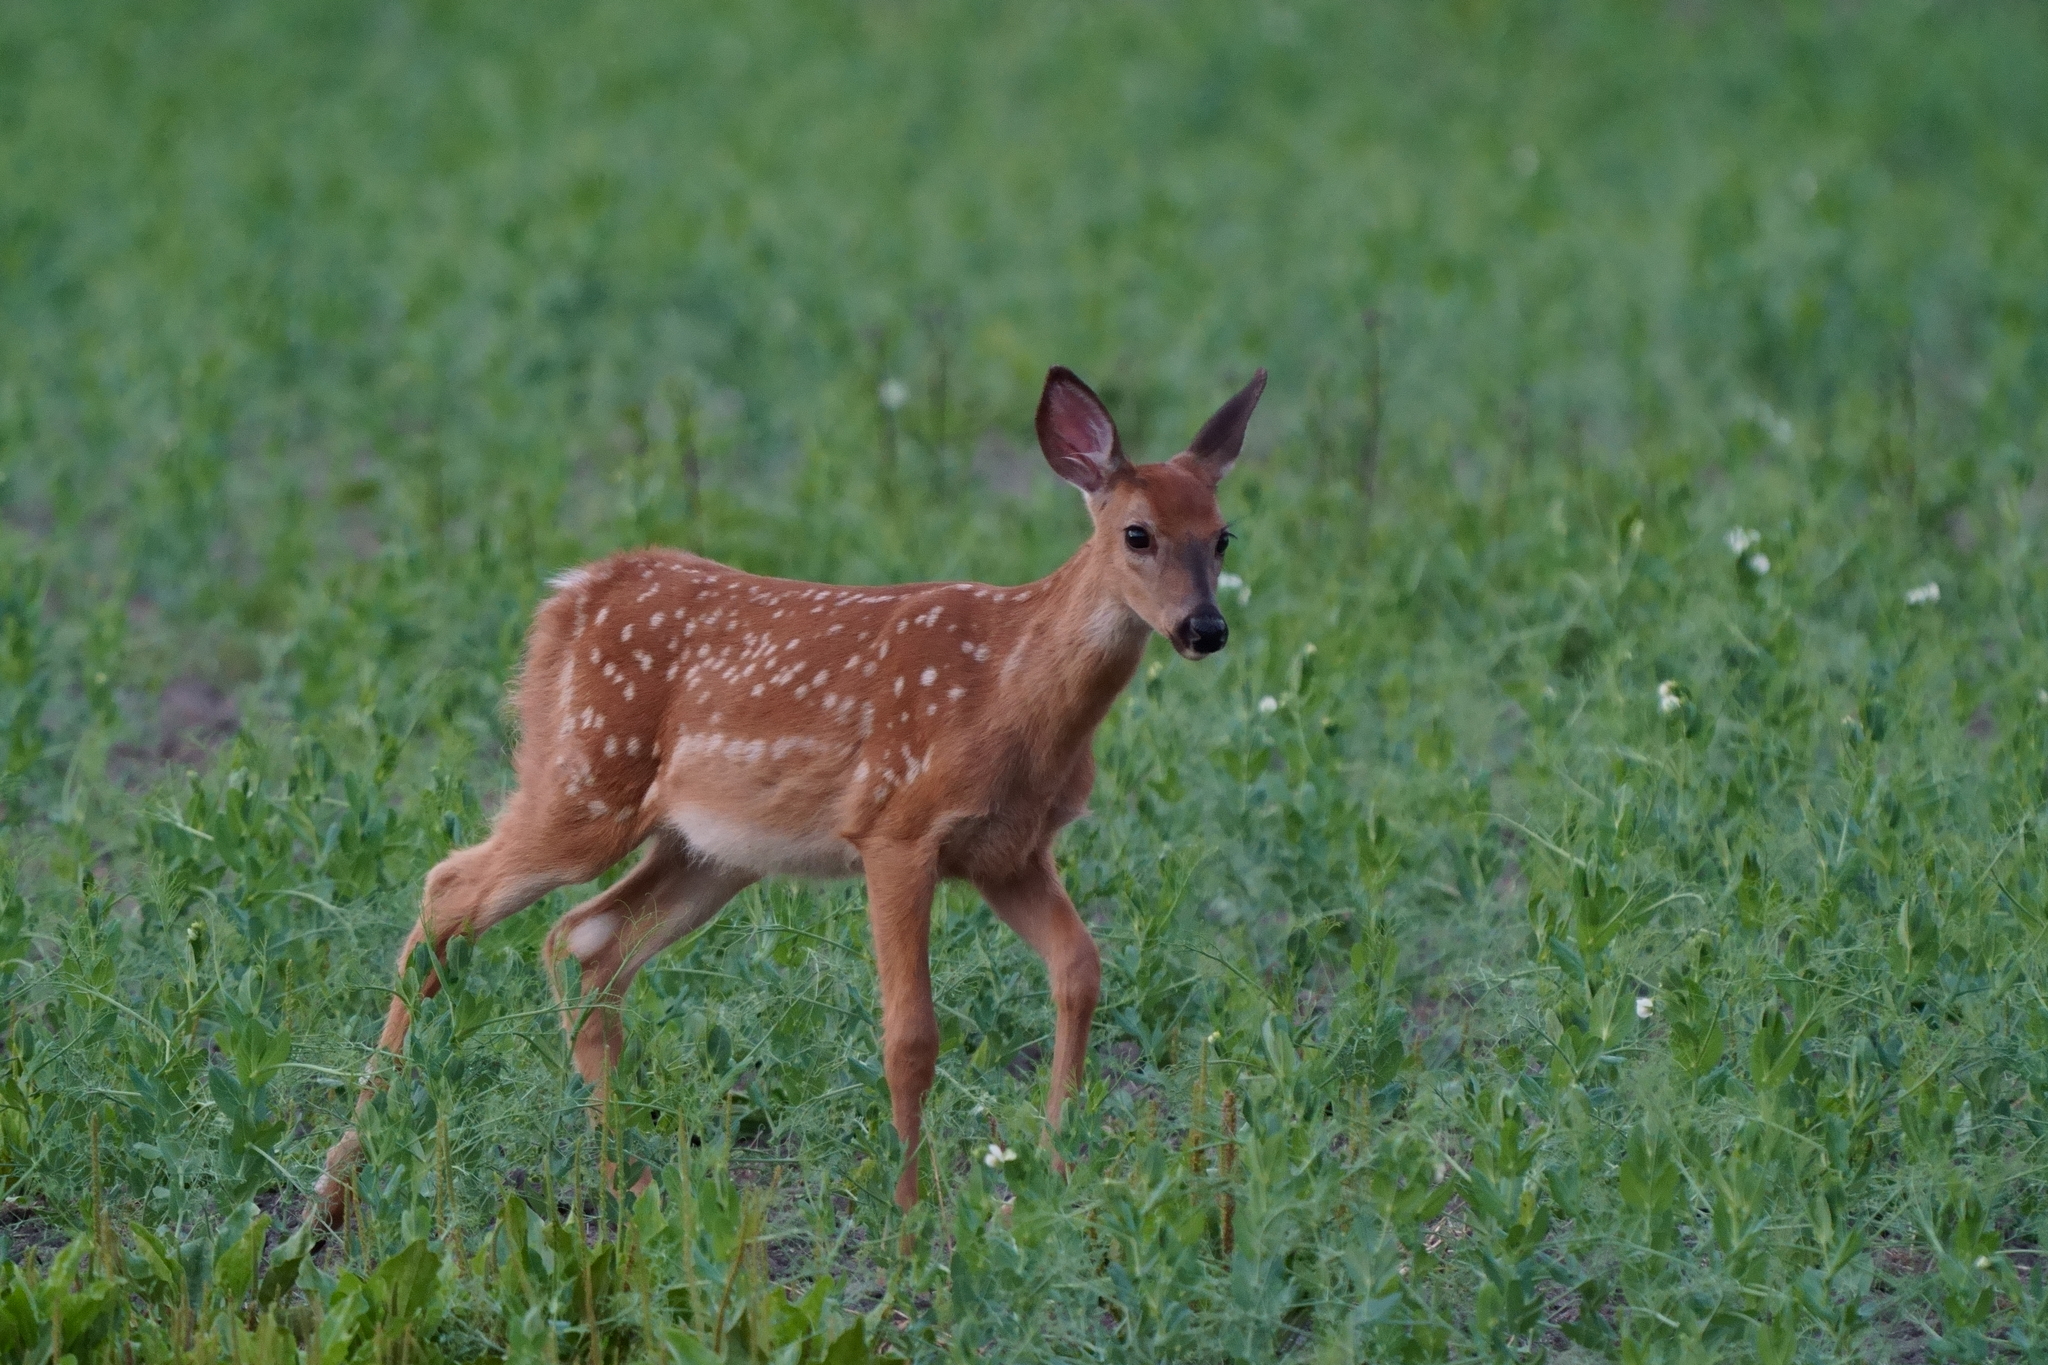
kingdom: Animalia
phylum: Chordata
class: Mammalia
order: Artiodactyla
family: Cervidae
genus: Odocoileus
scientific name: Odocoileus virginianus
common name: White-tailed deer
